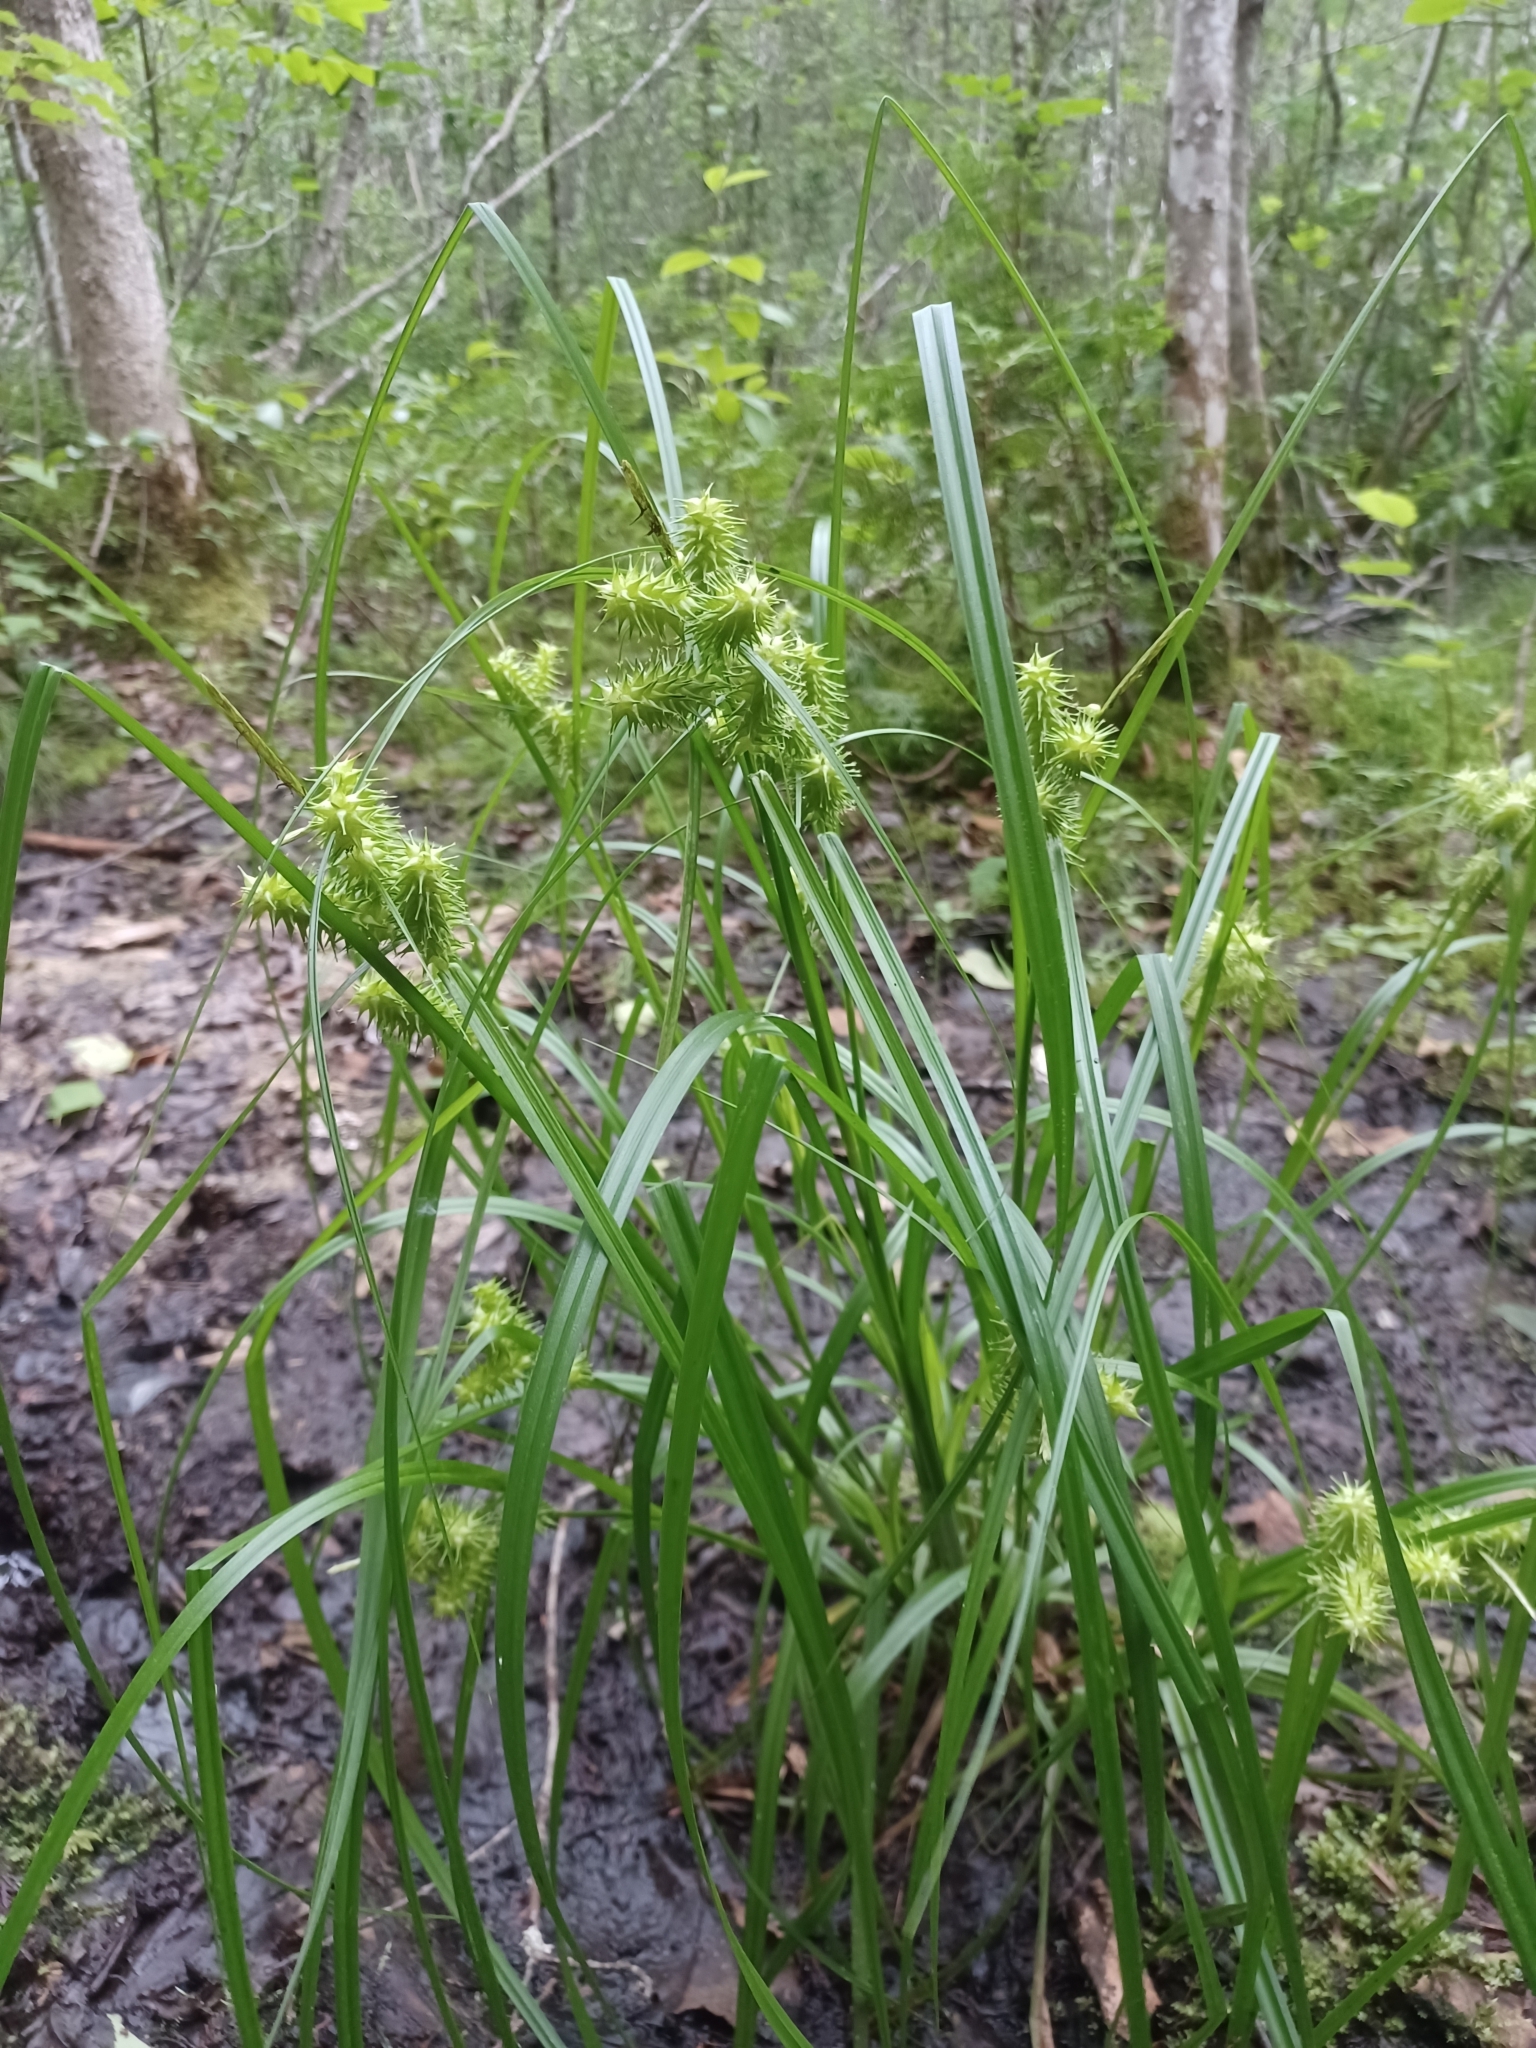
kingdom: Plantae
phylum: Tracheophyta
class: Liliopsida
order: Poales
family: Cyperaceae
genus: Carex
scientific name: Carex retrorsa
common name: Knot-sheath sedge
